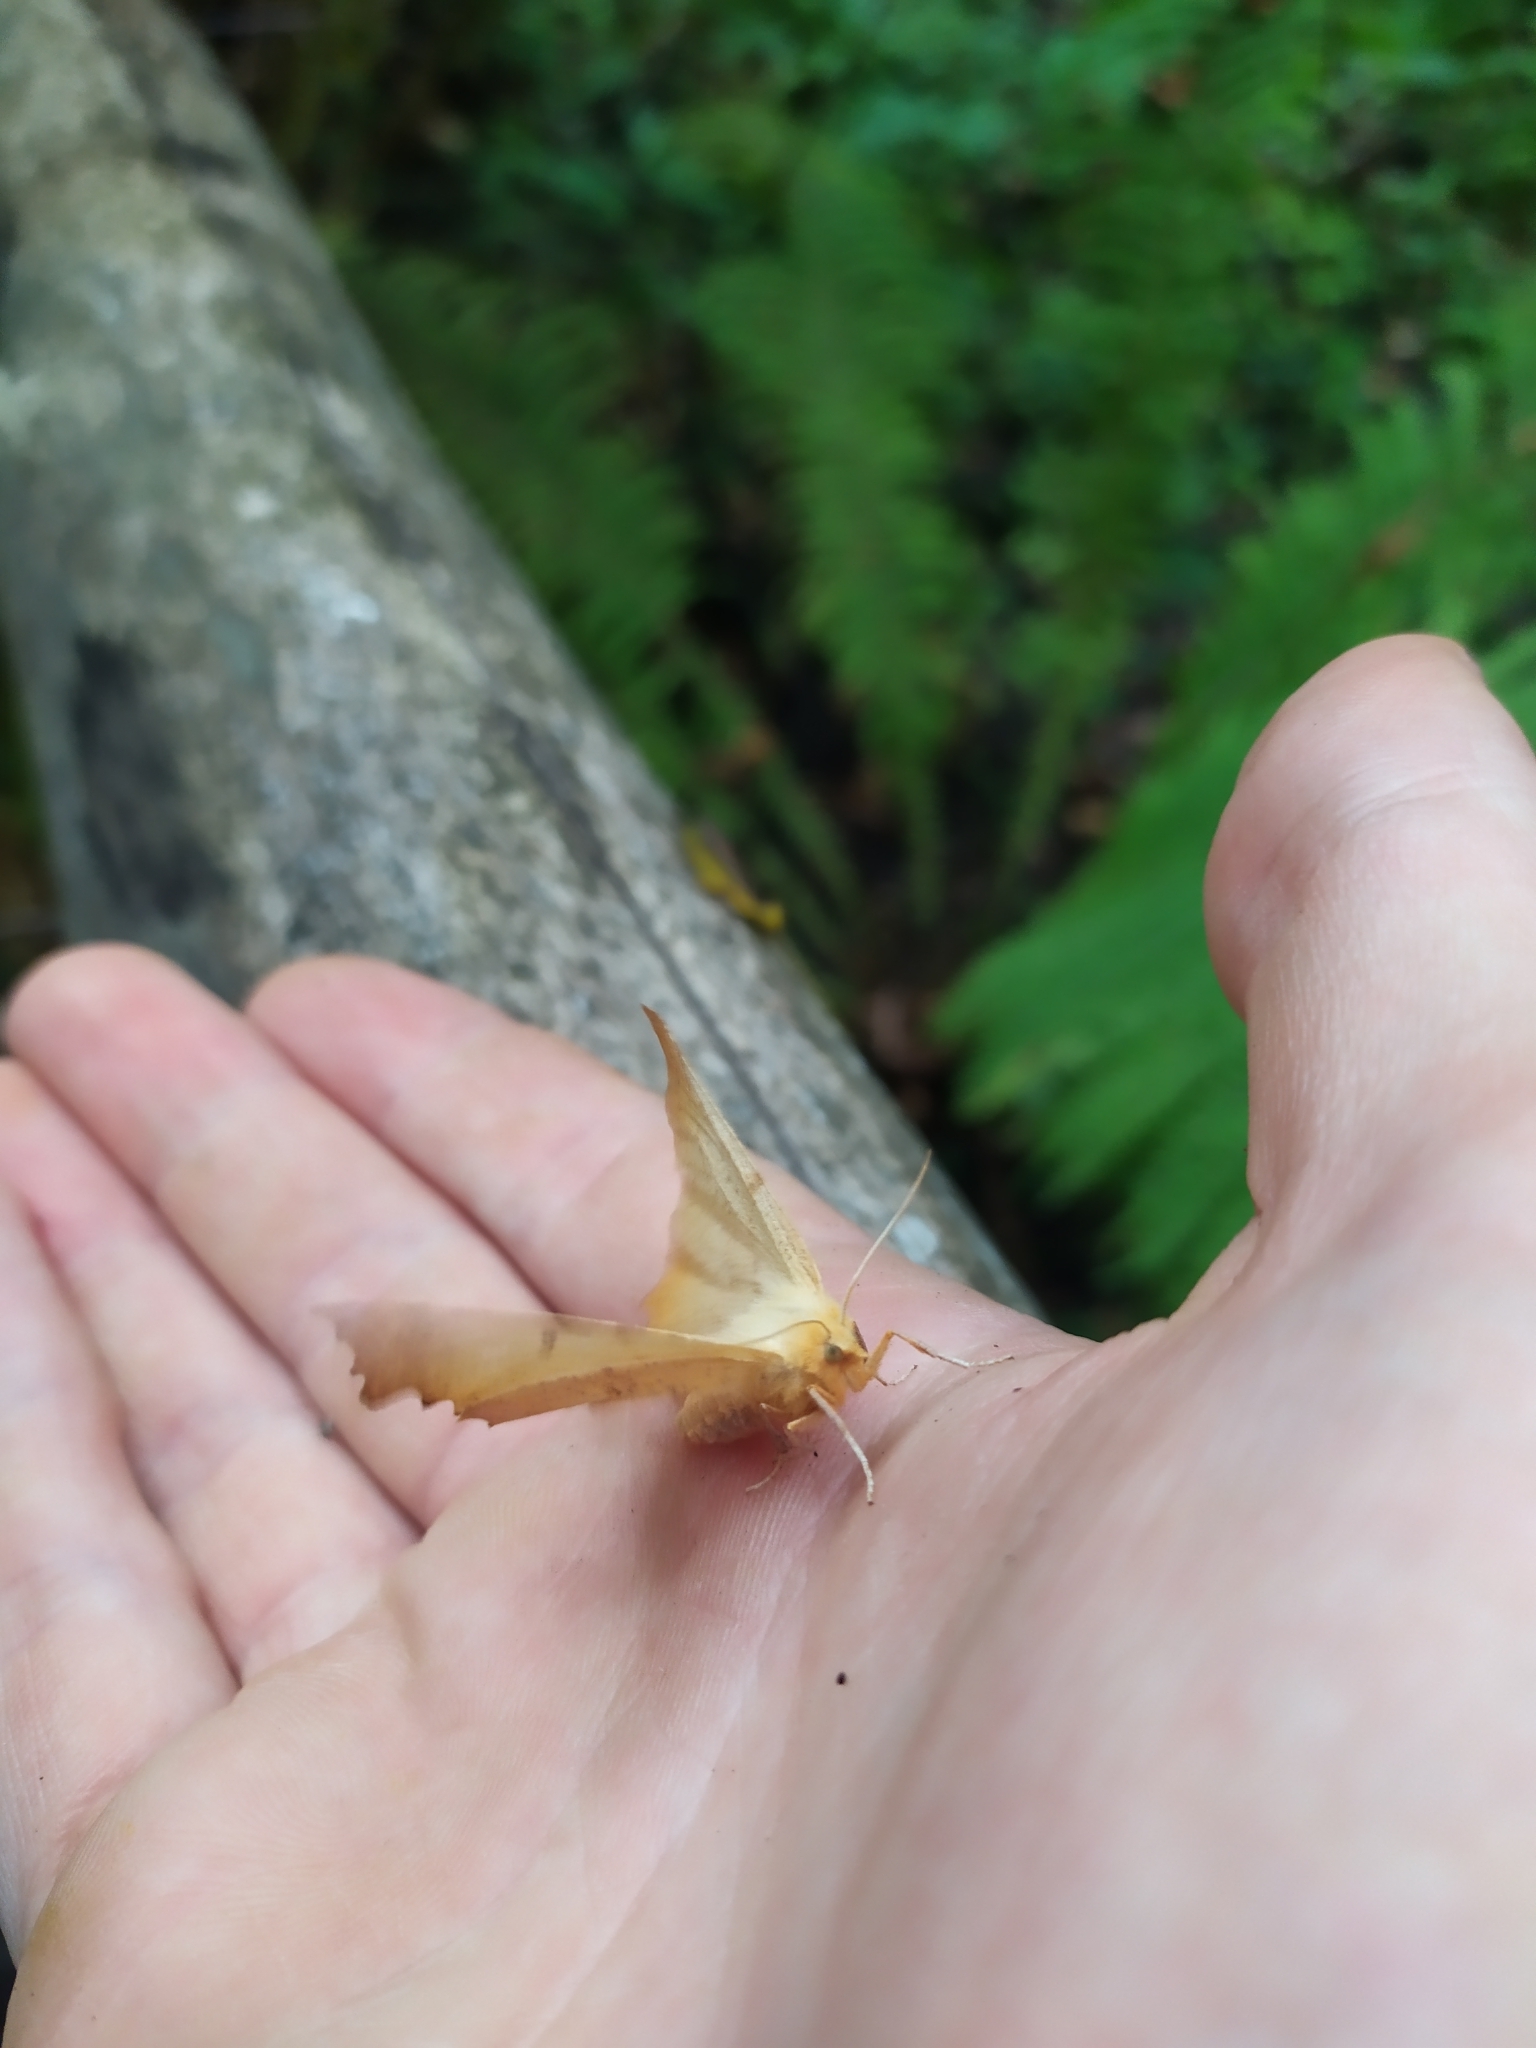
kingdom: Animalia
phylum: Arthropoda
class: Insecta
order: Lepidoptera
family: Geometridae
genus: Ennomos
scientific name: Ennomos autumnaria
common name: Large thorn
